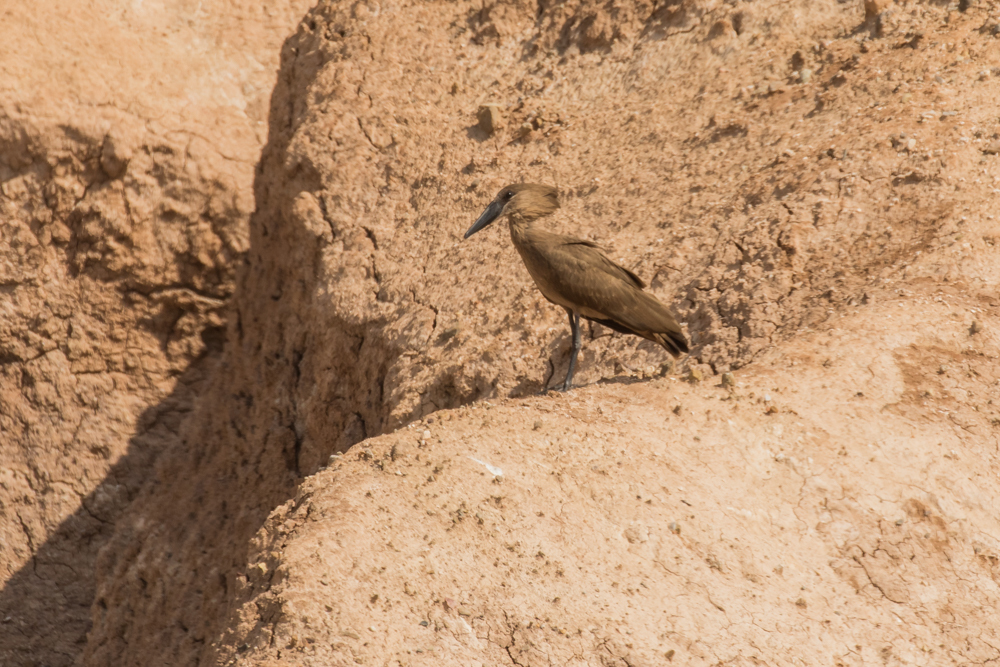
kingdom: Animalia
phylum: Chordata
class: Aves
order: Pelecaniformes
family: Scopidae
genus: Scopus
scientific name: Scopus umbretta
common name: Hamerkop
